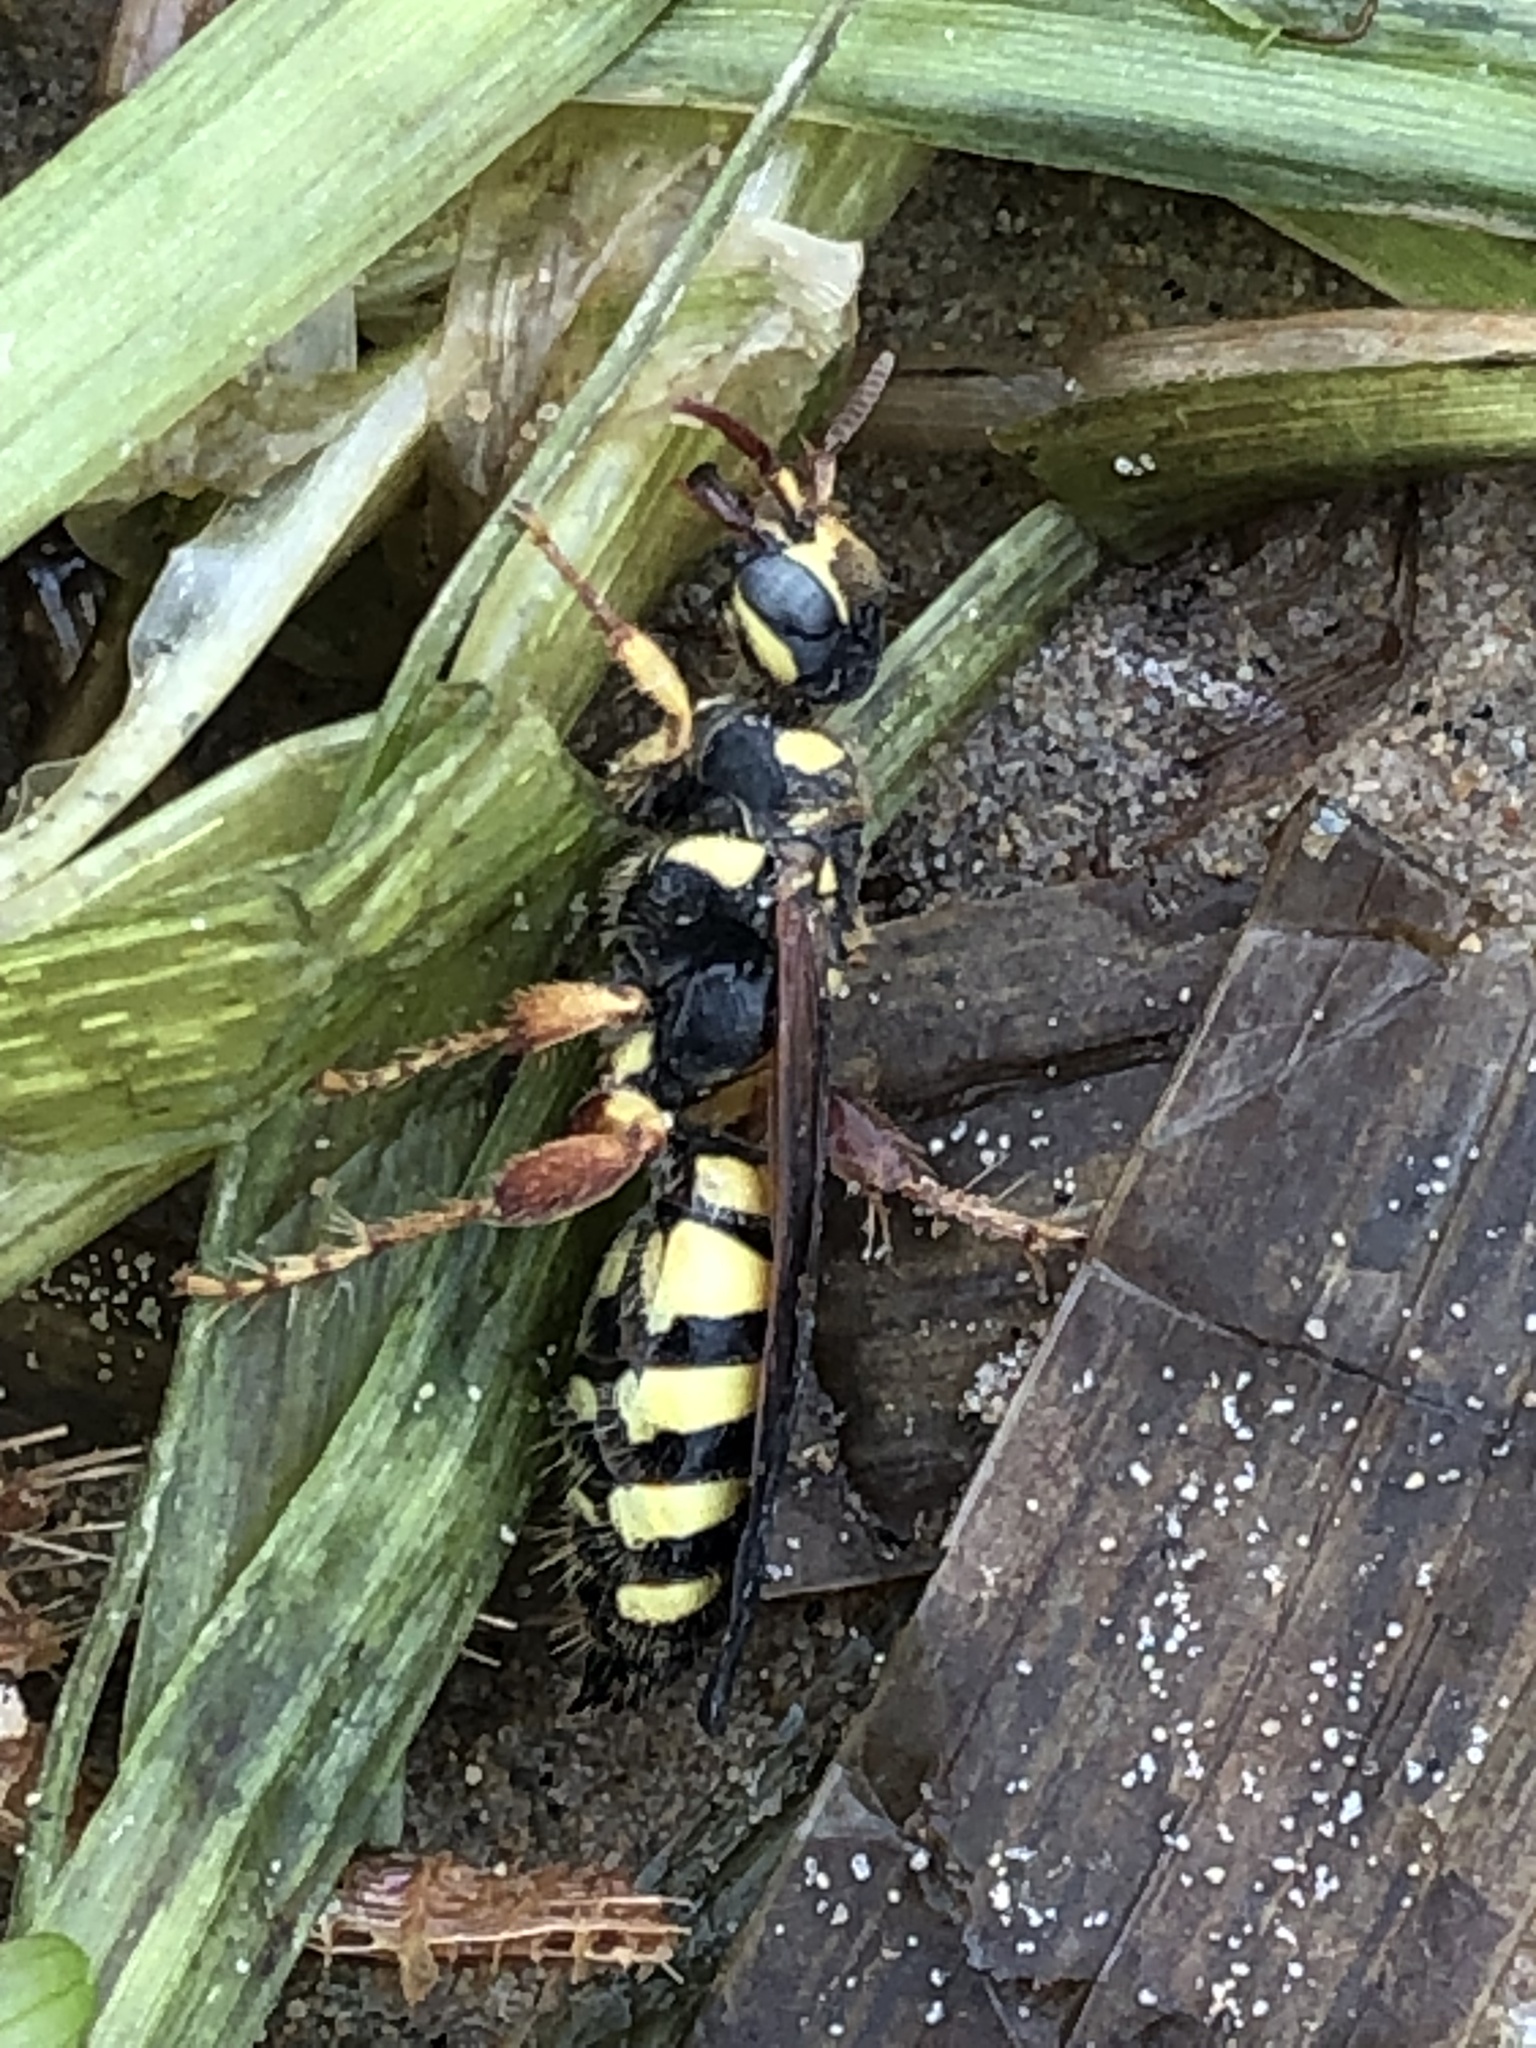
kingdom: Animalia
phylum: Arthropoda
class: Insecta
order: Hymenoptera
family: Tiphiidae
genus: Myzinum
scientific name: Myzinum quinquecinctum
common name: Five-banded thynnid wasp
